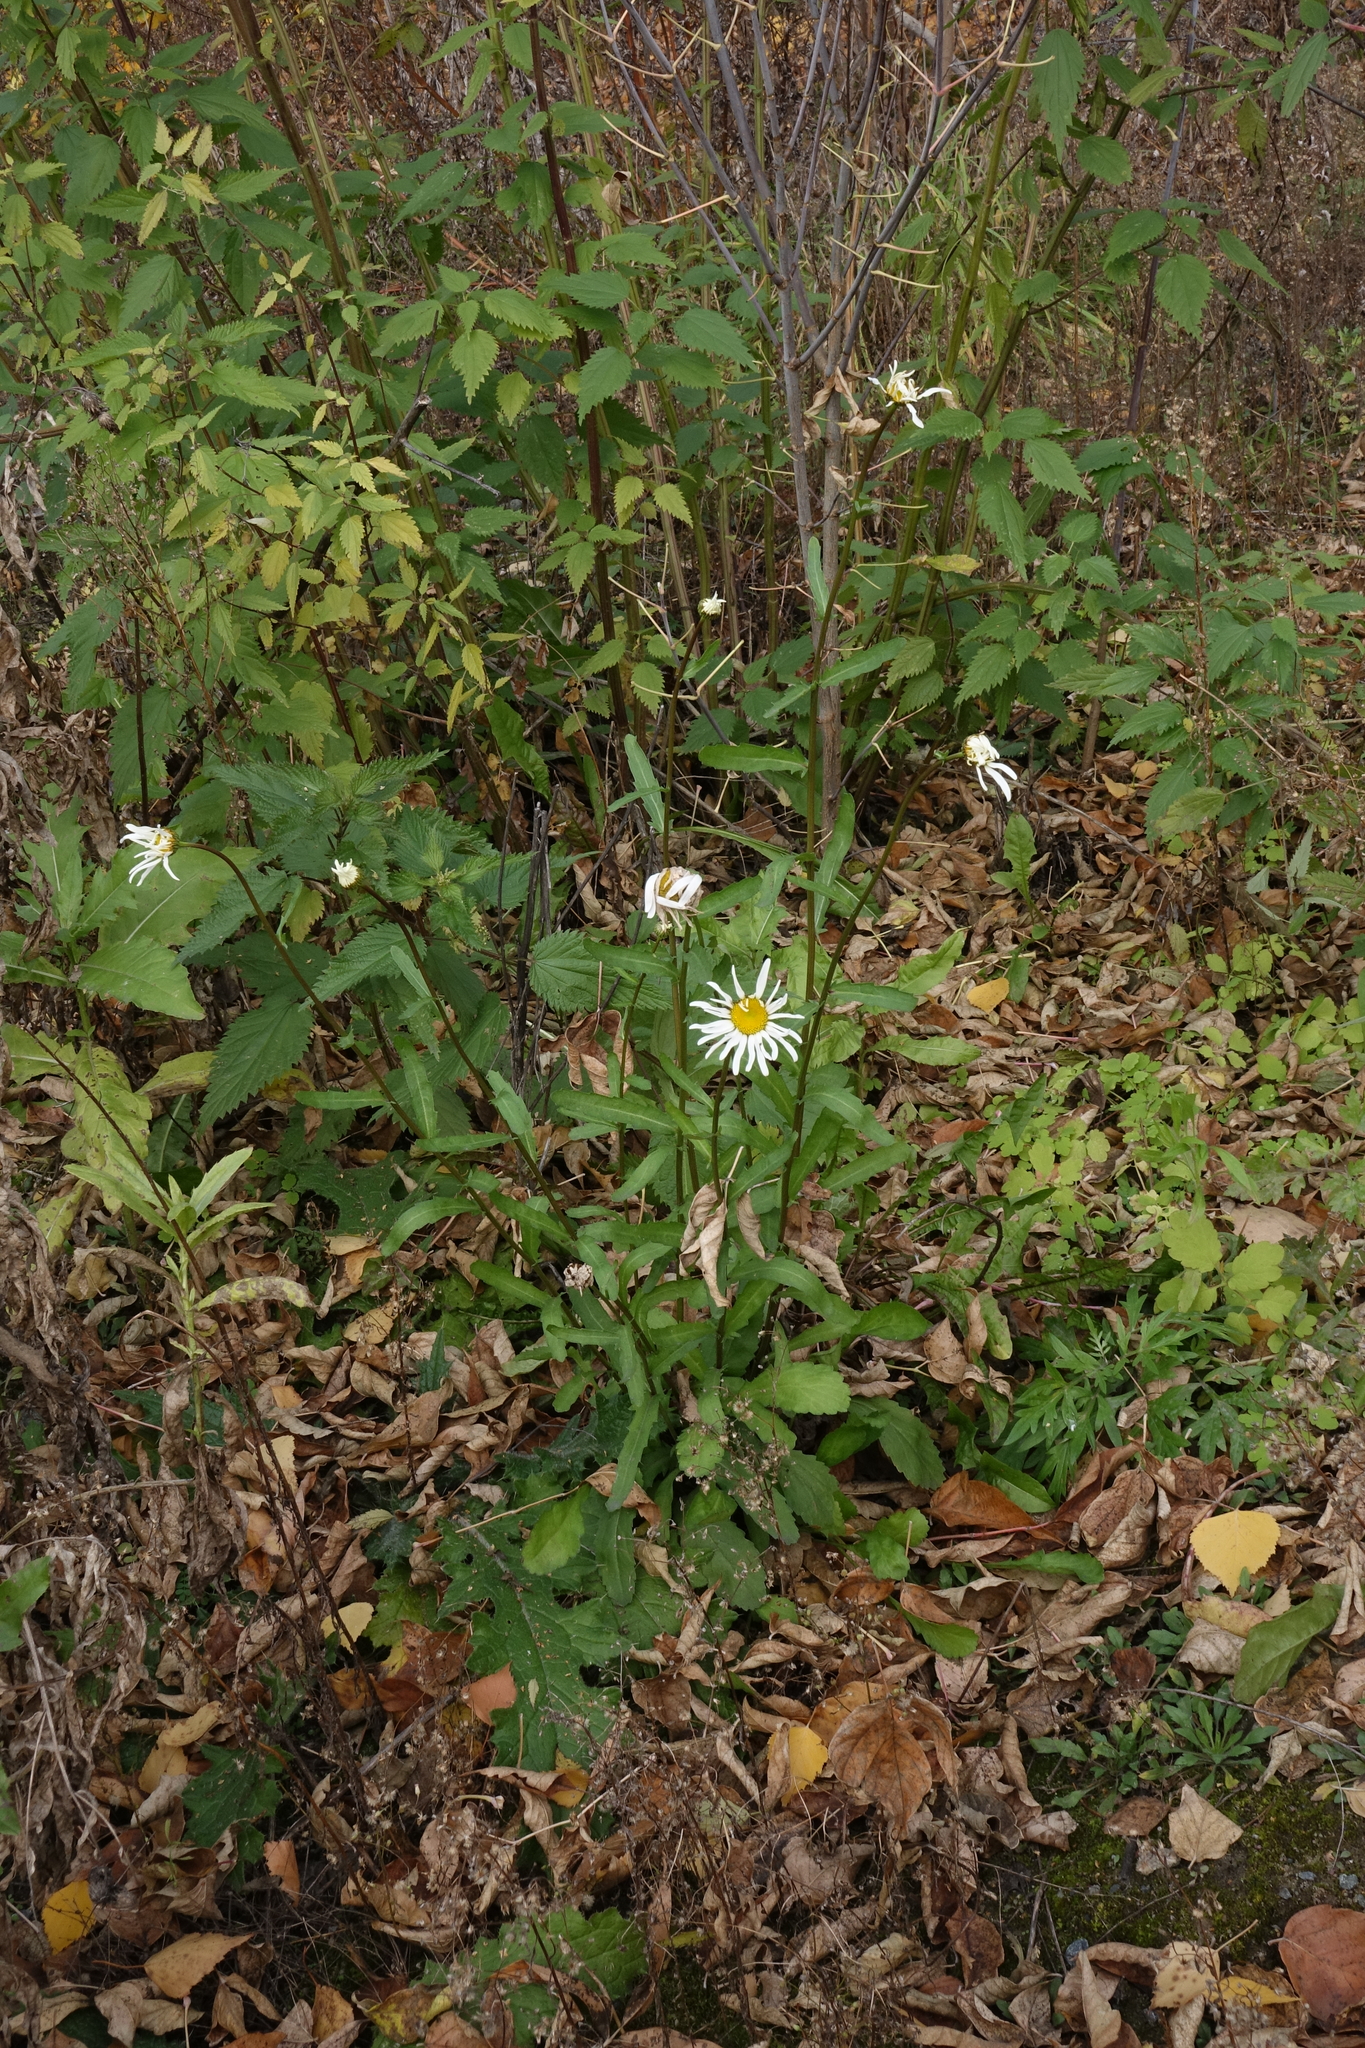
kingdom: Plantae
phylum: Tracheophyta
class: Magnoliopsida
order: Asterales
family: Asteraceae
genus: Leucanthemum
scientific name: Leucanthemum ircutianum
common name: Daisy
